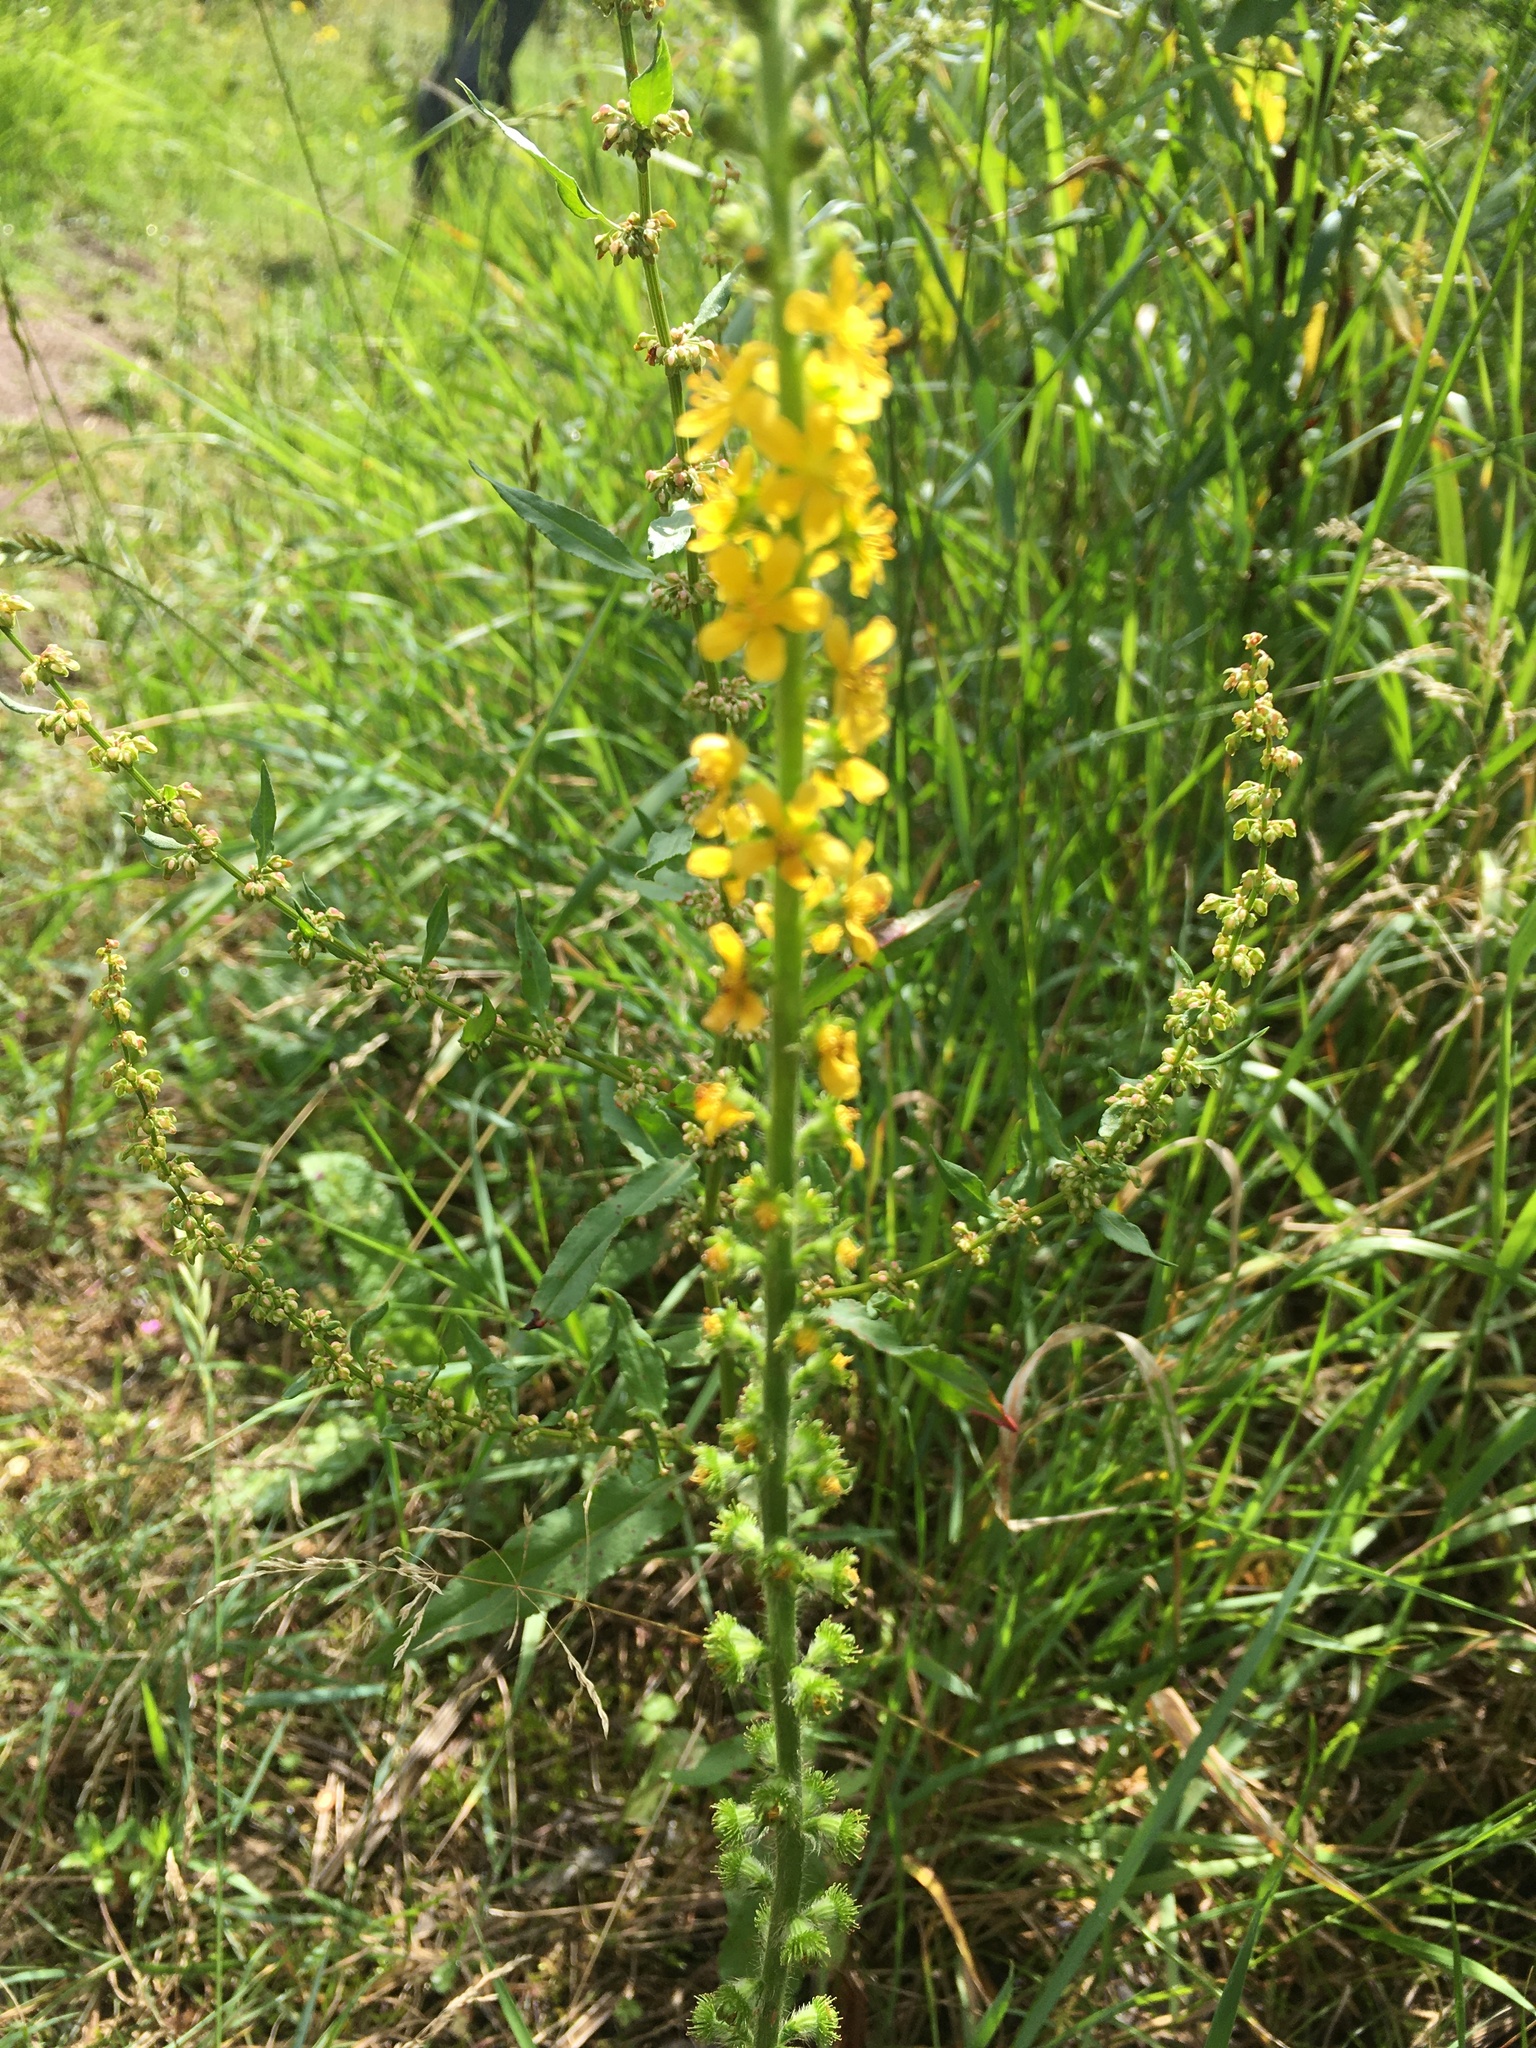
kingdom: Plantae
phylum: Tracheophyta
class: Magnoliopsida
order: Rosales
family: Rosaceae
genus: Agrimonia
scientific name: Agrimonia eupatoria
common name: Agrimony
